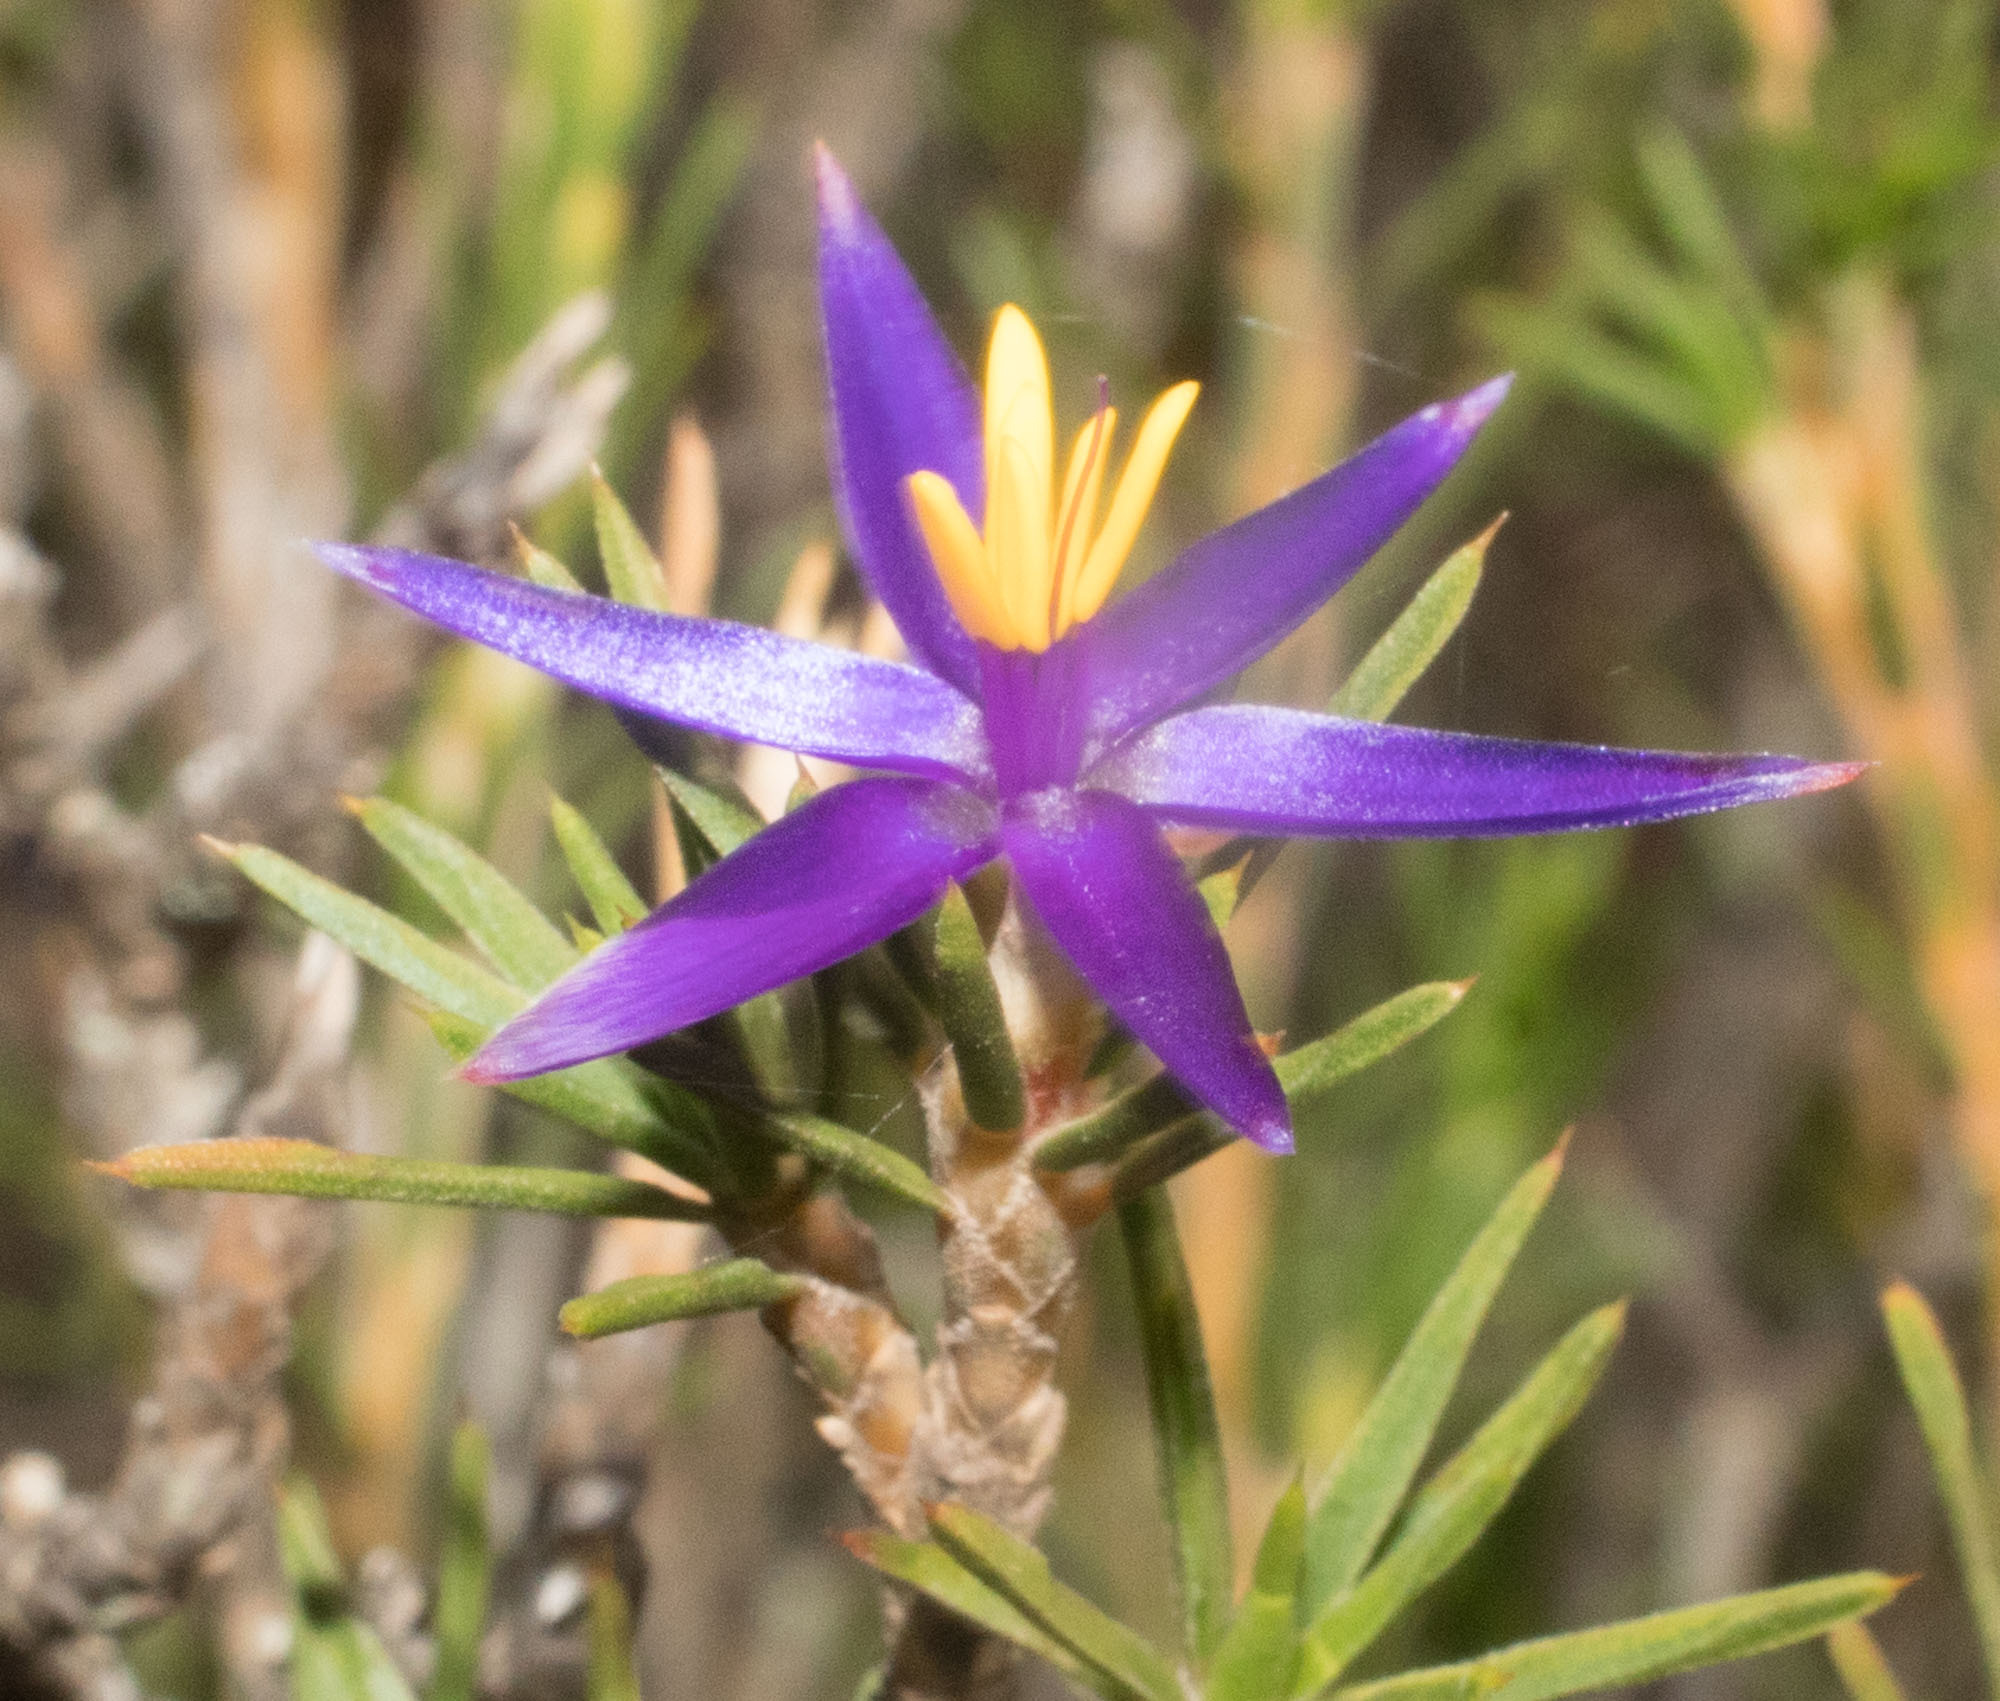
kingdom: Plantae
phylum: Tracheophyta
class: Liliopsida
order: Arecales
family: Dasypogonaceae
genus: Calectasia
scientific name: Calectasia valida
